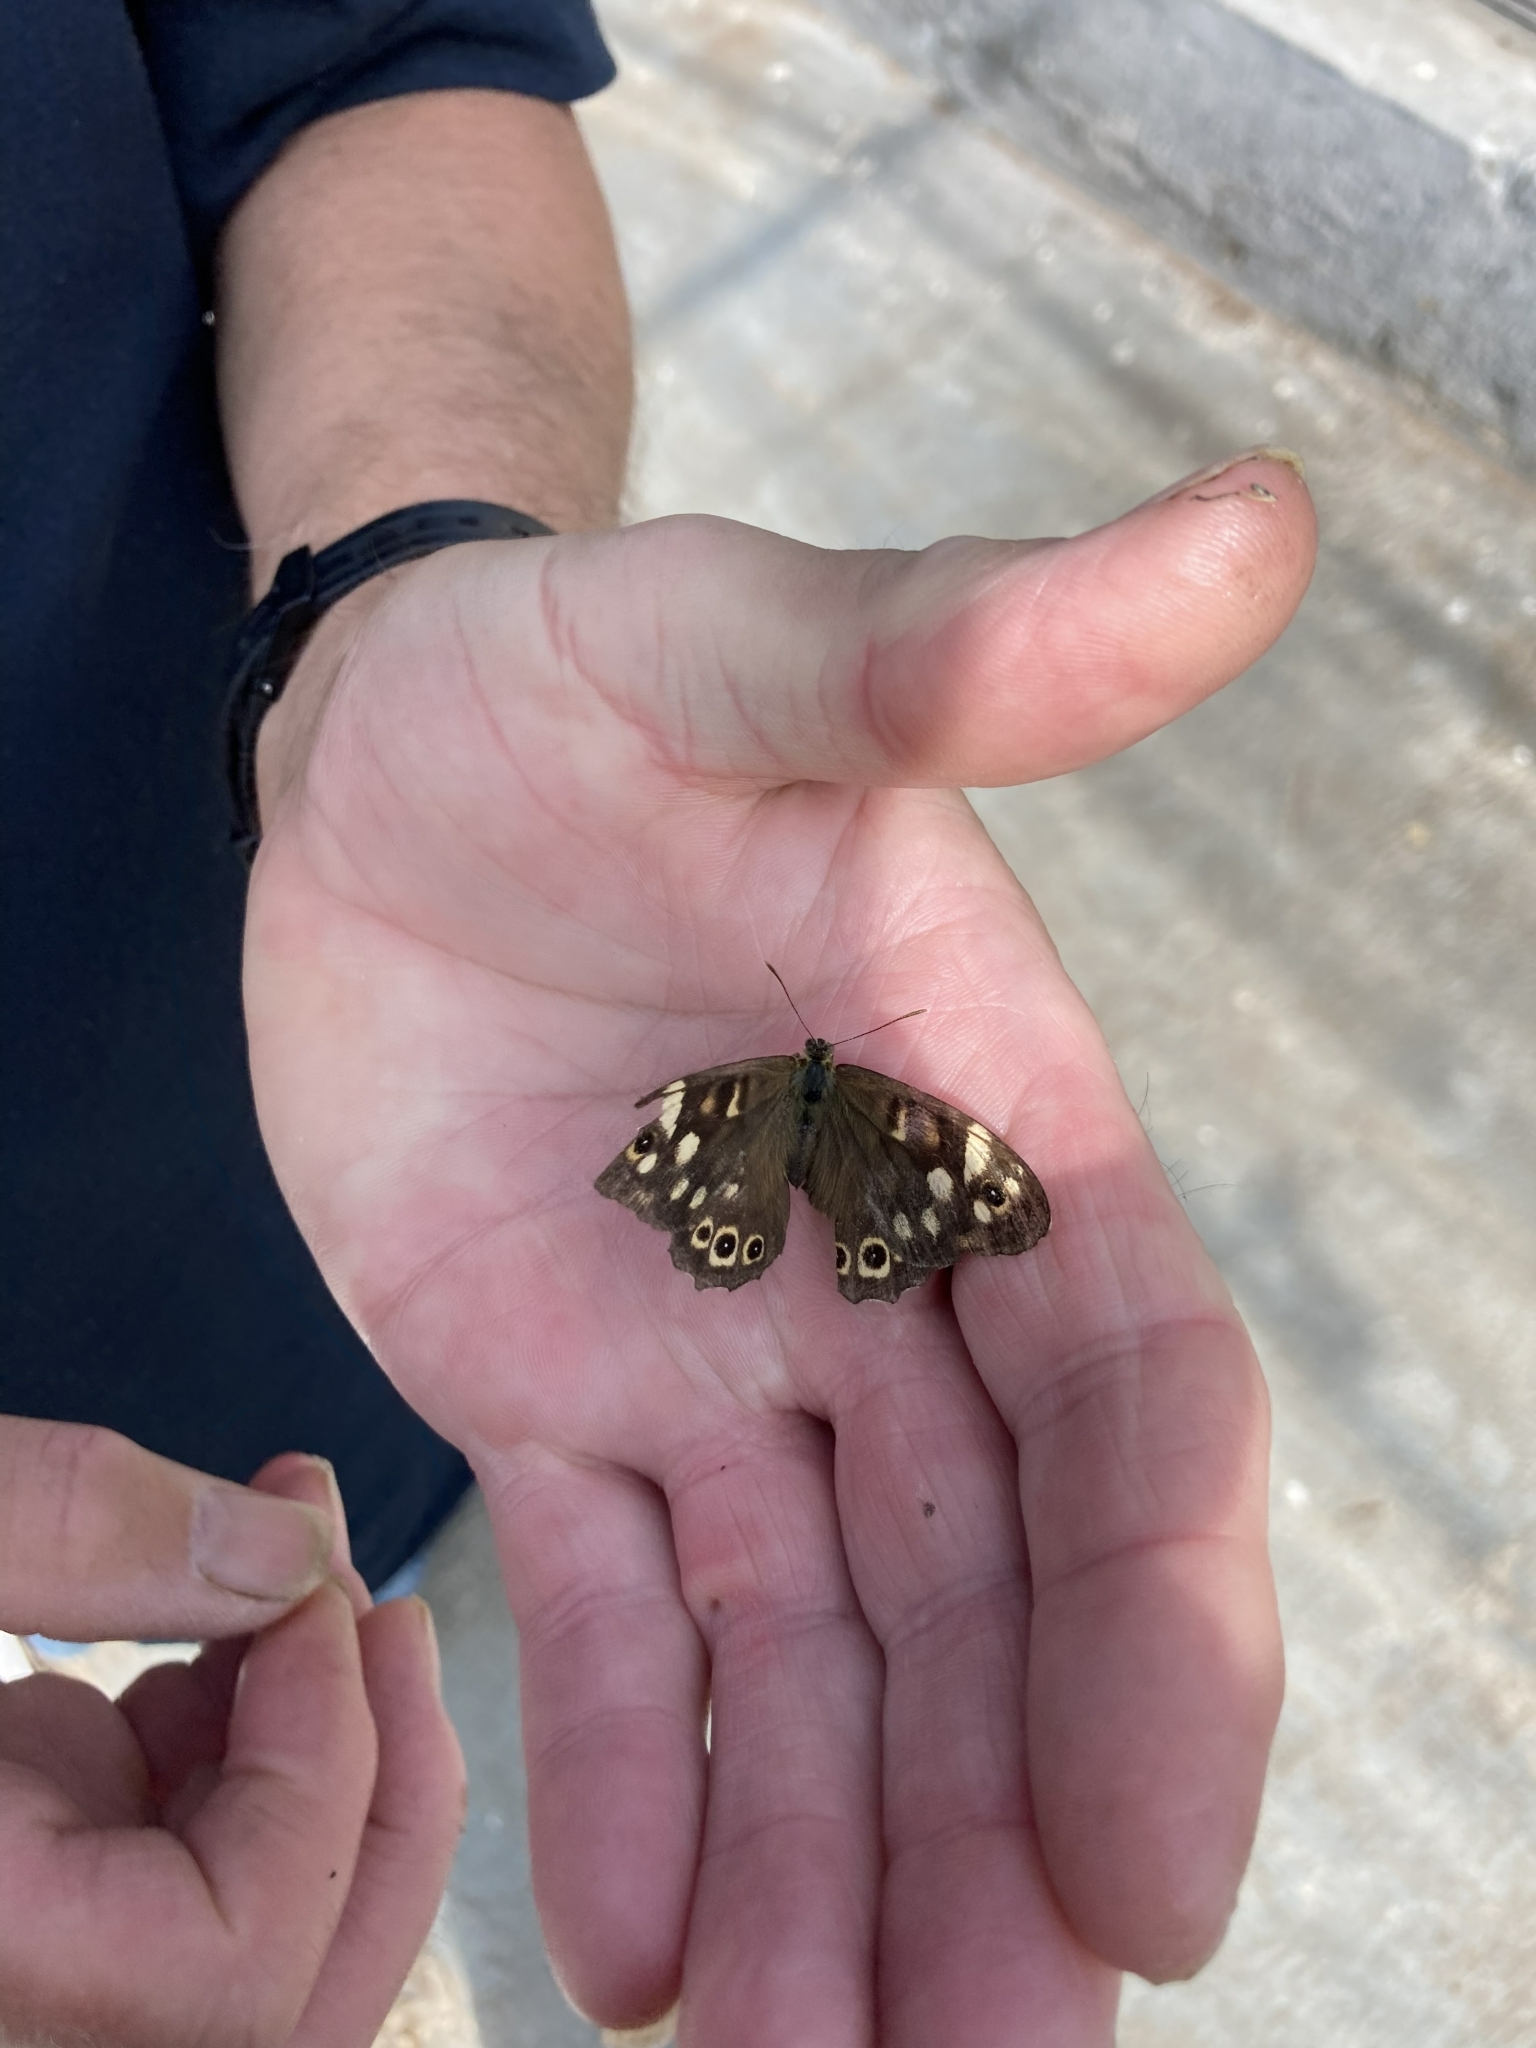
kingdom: Animalia
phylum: Arthropoda
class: Insecta
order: Lepidoptera
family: Nymphalidae
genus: Pararge
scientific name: Pararge aegeria
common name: Speckled wood
